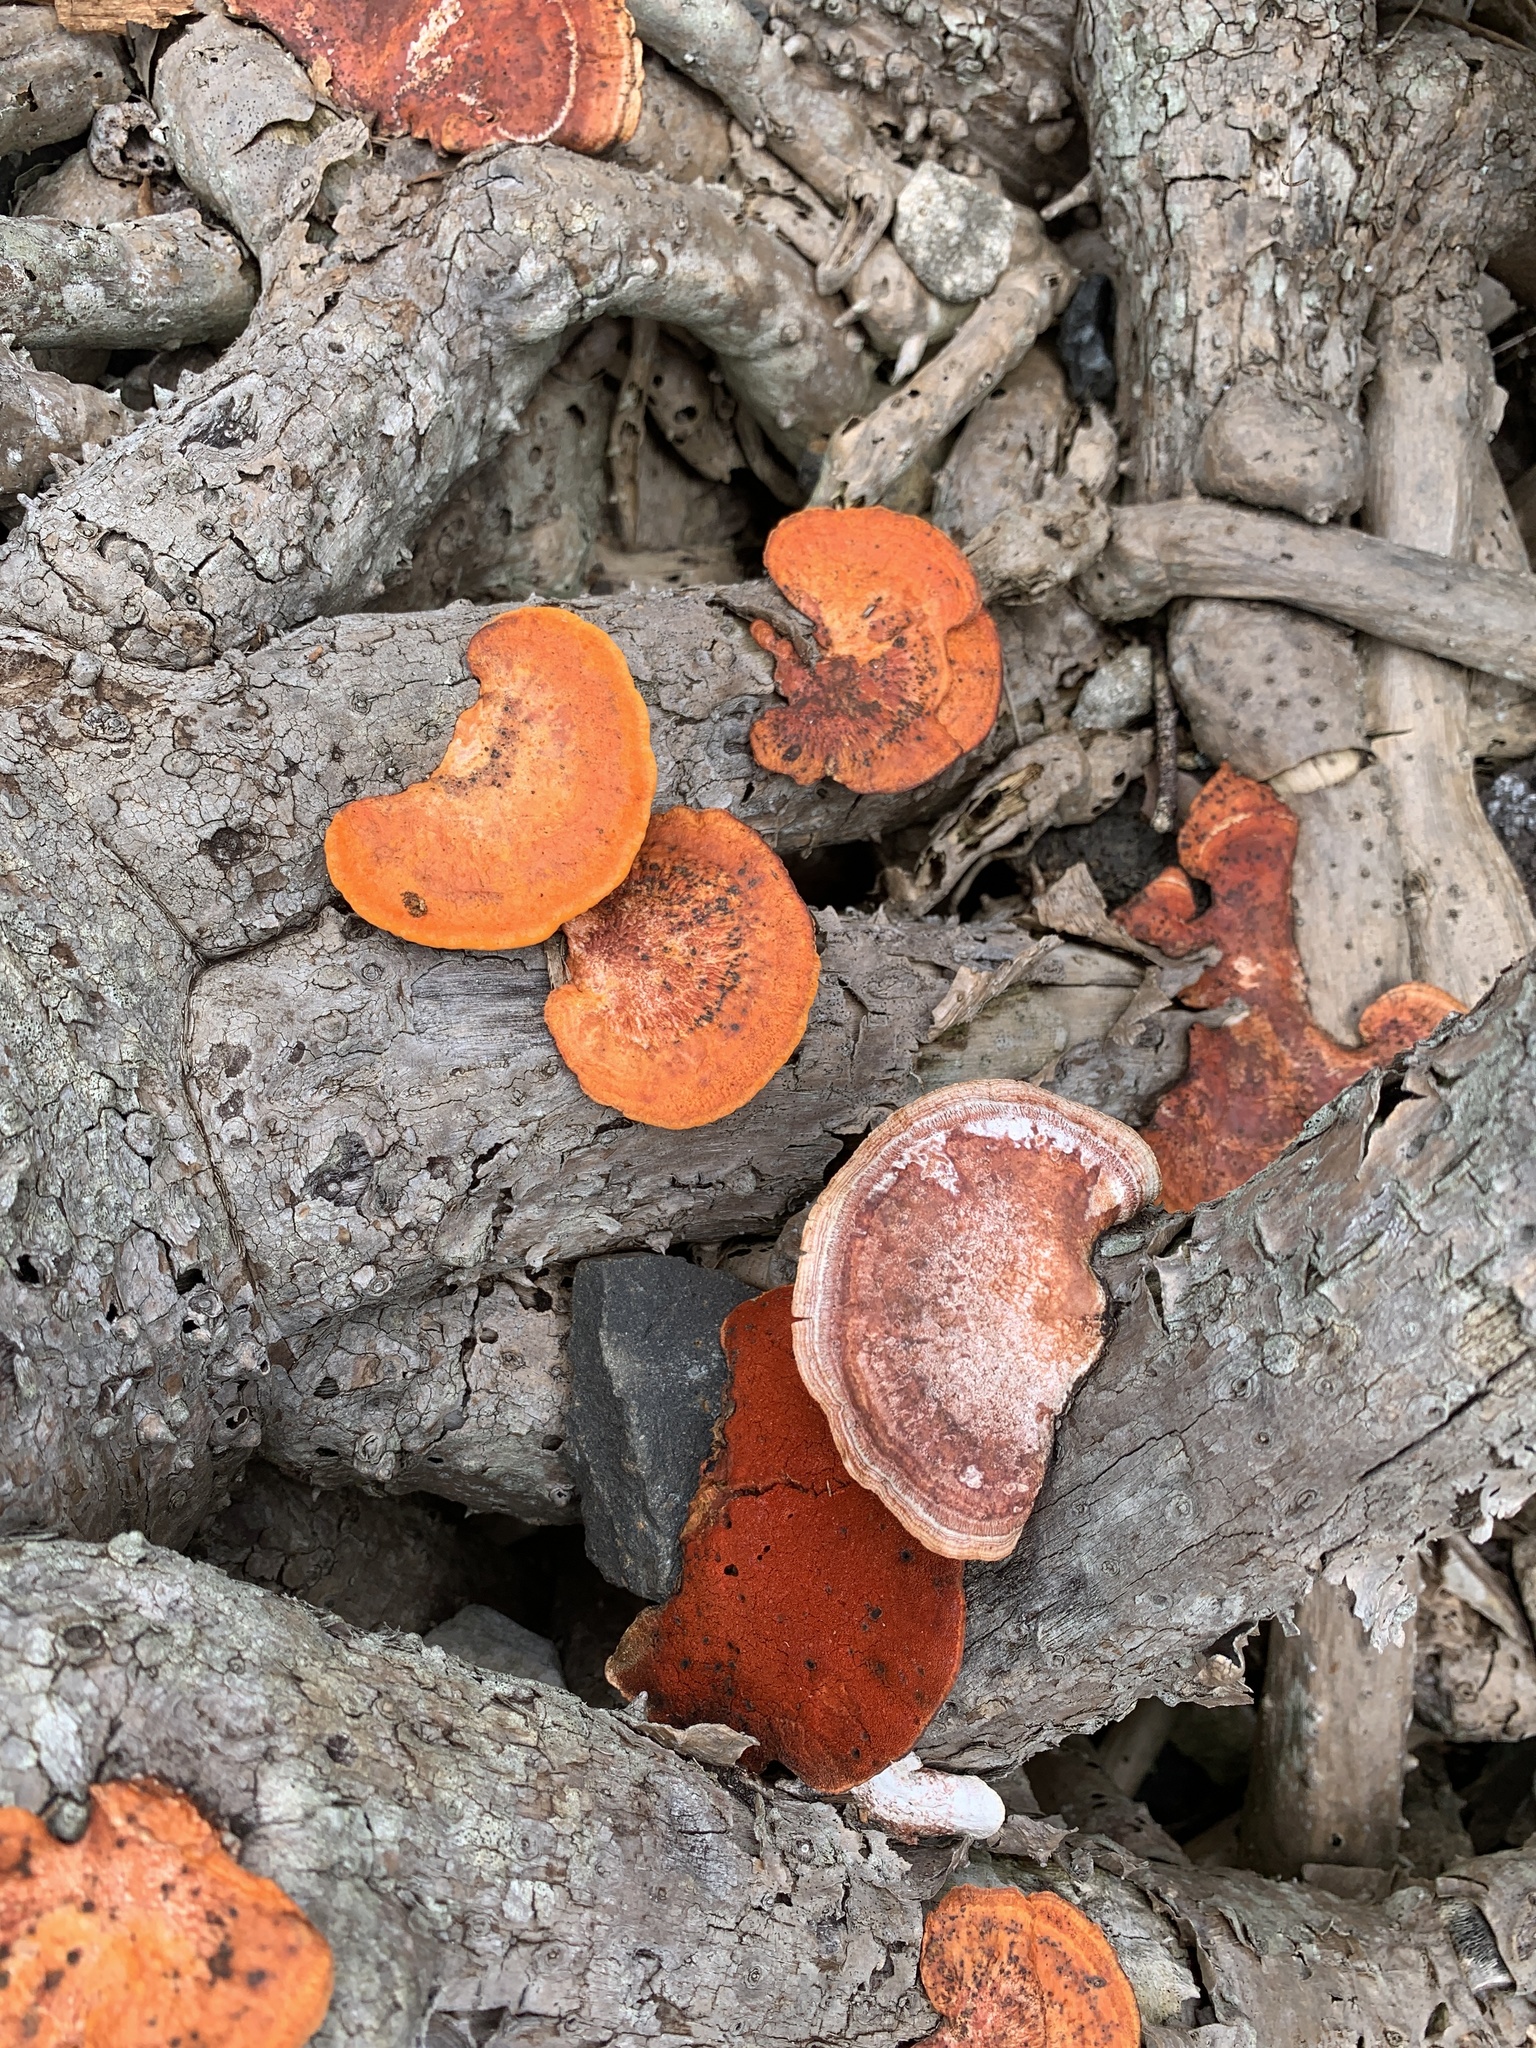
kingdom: Fungi
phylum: Basidiomycota
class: Agaricomycetes
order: Polyporales
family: Polyporaceae
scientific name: Polyporaceae
